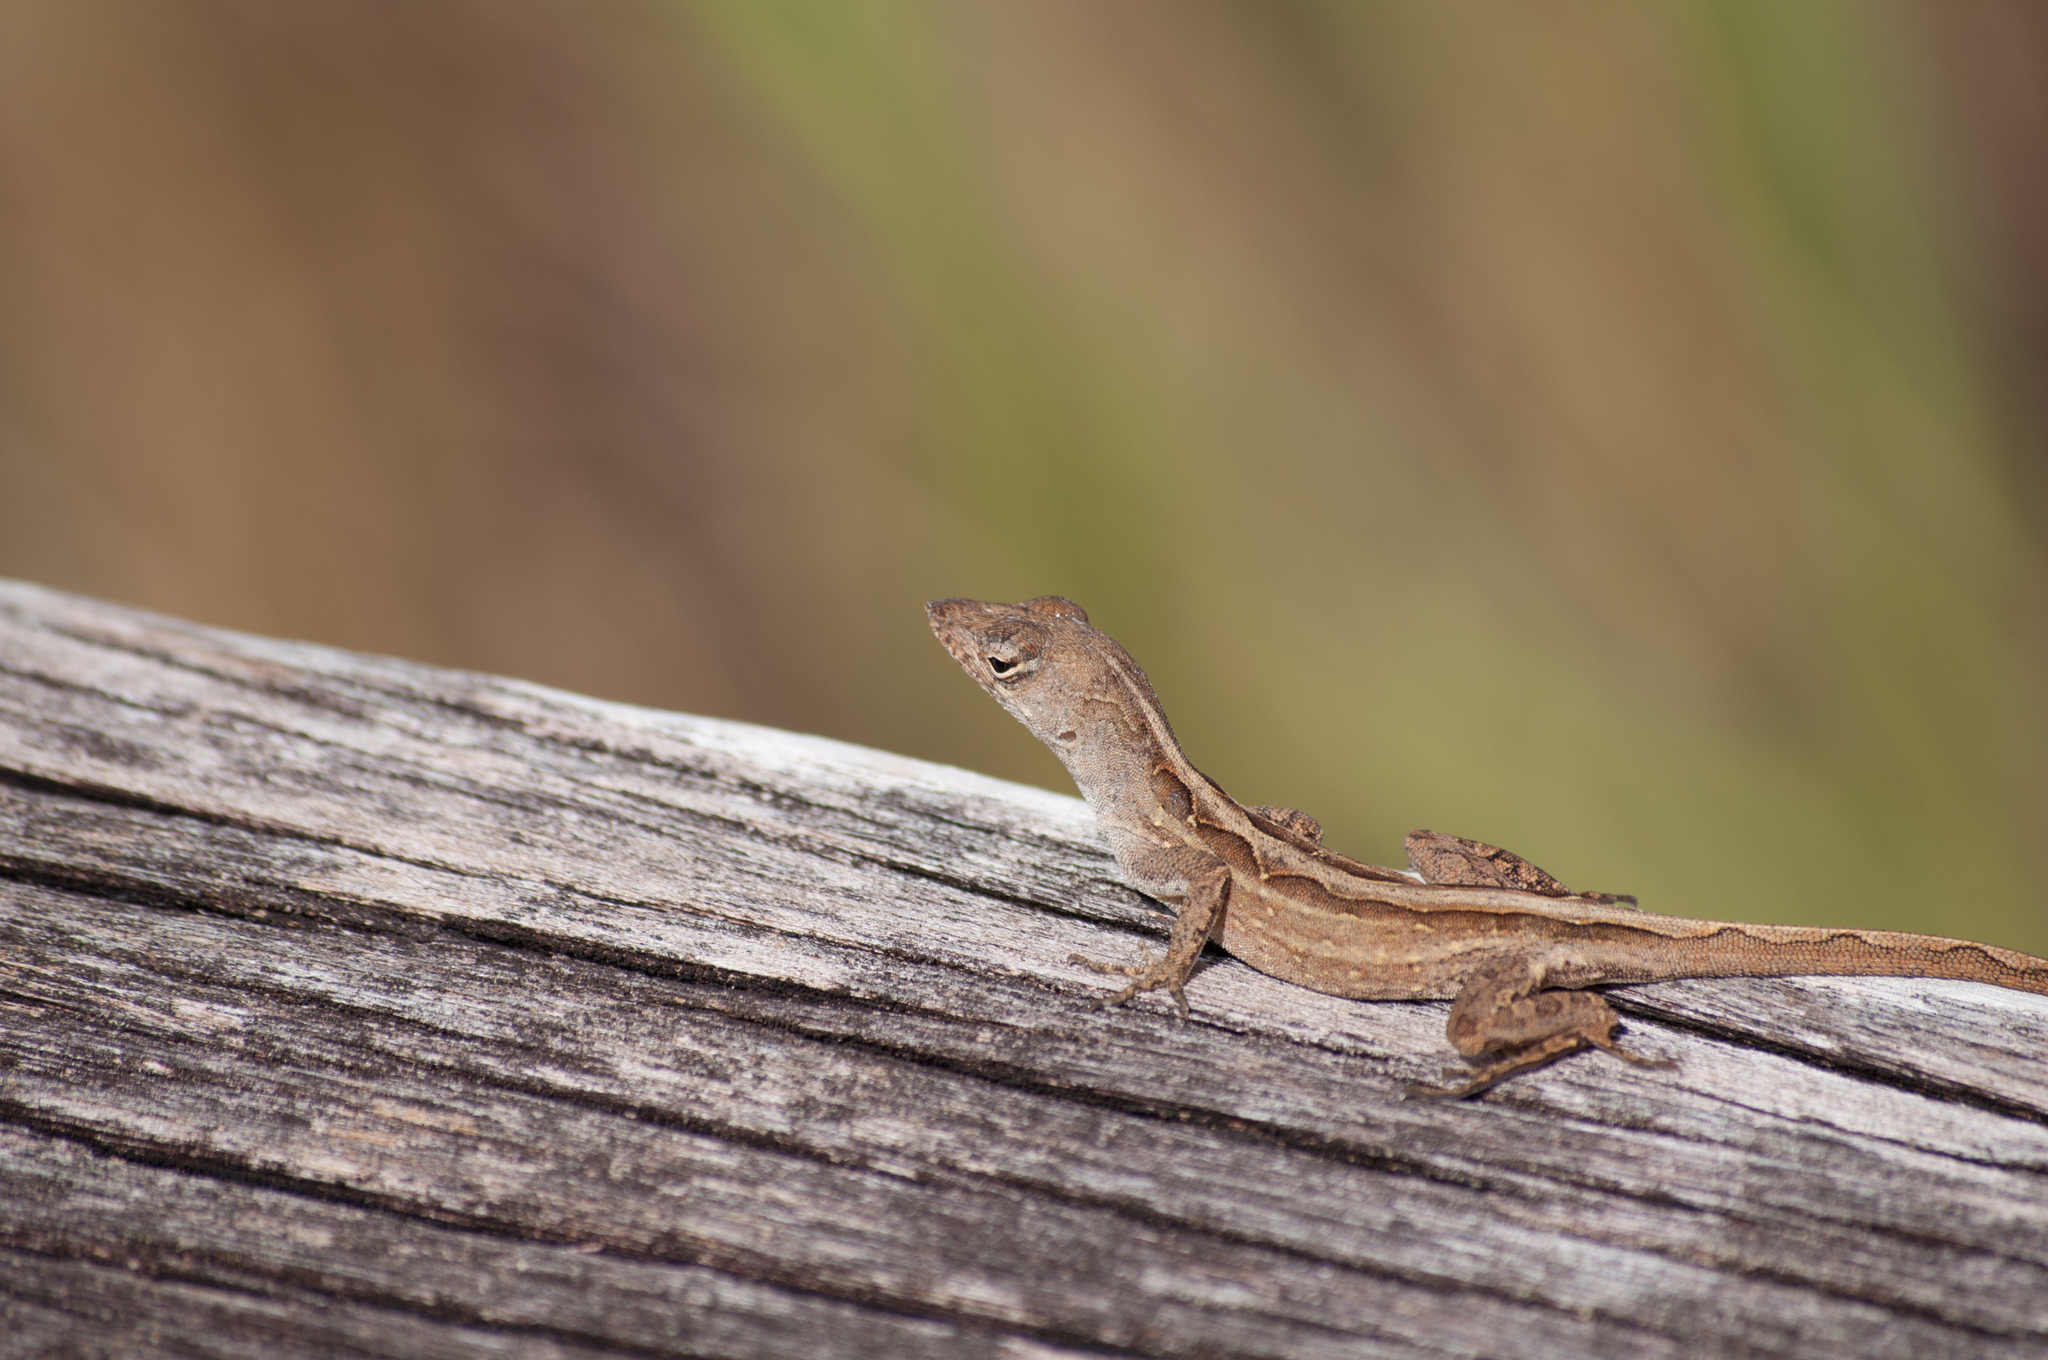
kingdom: Animalia
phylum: Chordata
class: Squamata
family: Dactyloidae
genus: Anolis
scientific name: Anolis sagrei
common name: Brown anole
